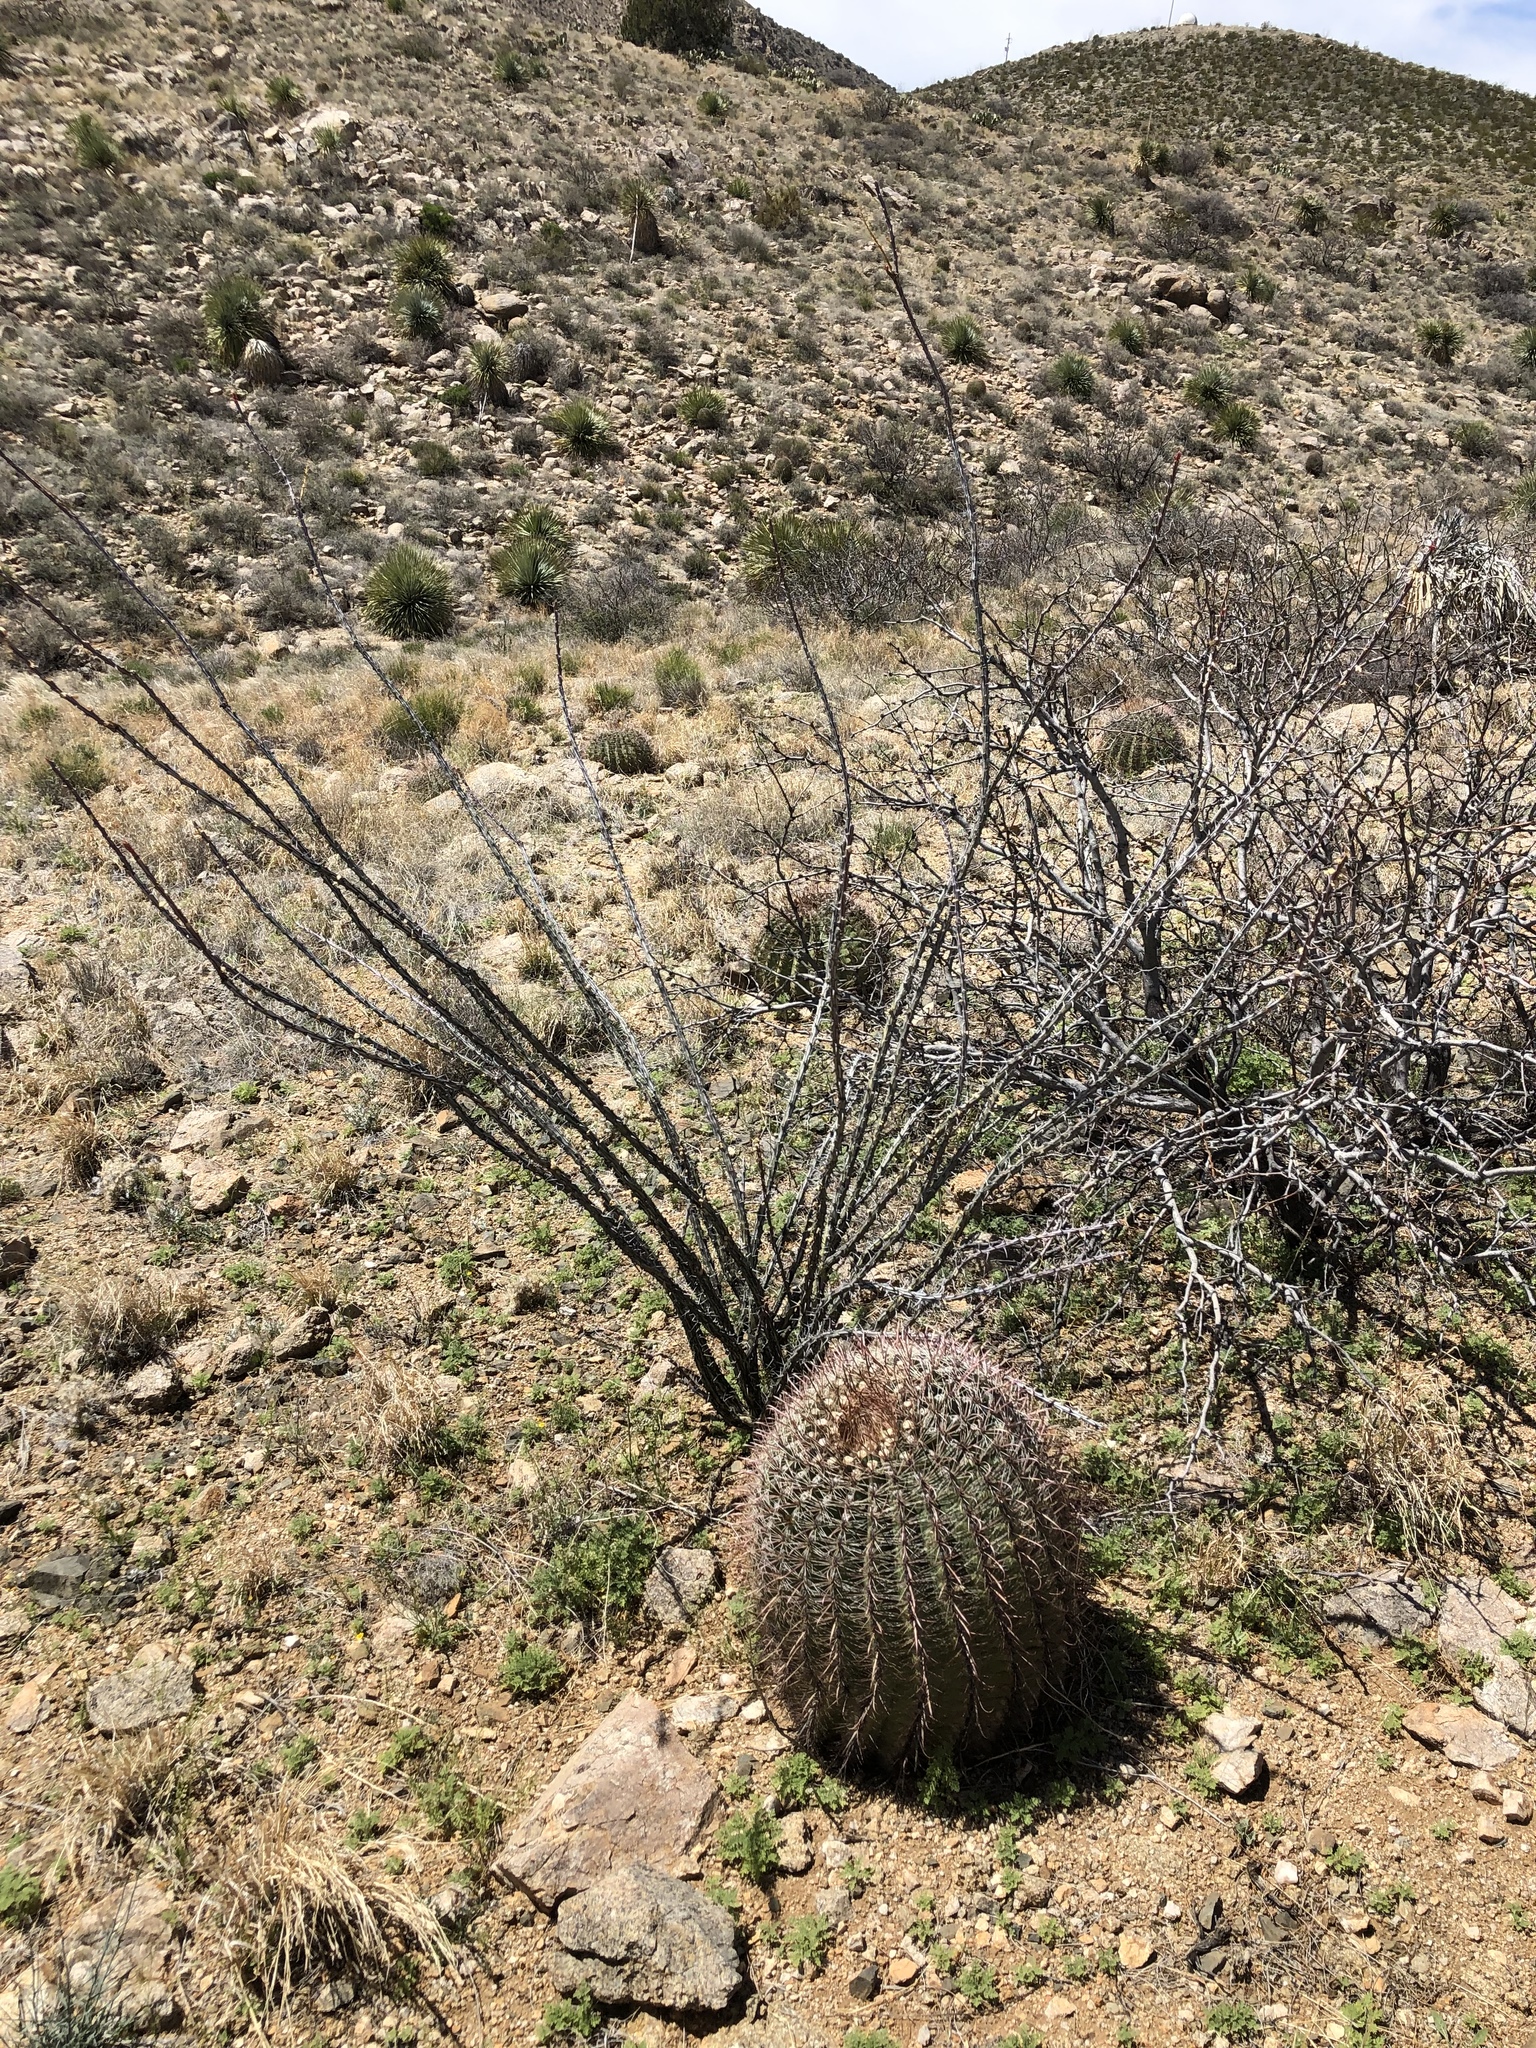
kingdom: Plantae
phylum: Tracheophyta
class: Magnoliopsida
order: Caryophyllales
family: Cactaceae
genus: Ferocactus
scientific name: Ferocactus wislizeni
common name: Candy barrel cactus
